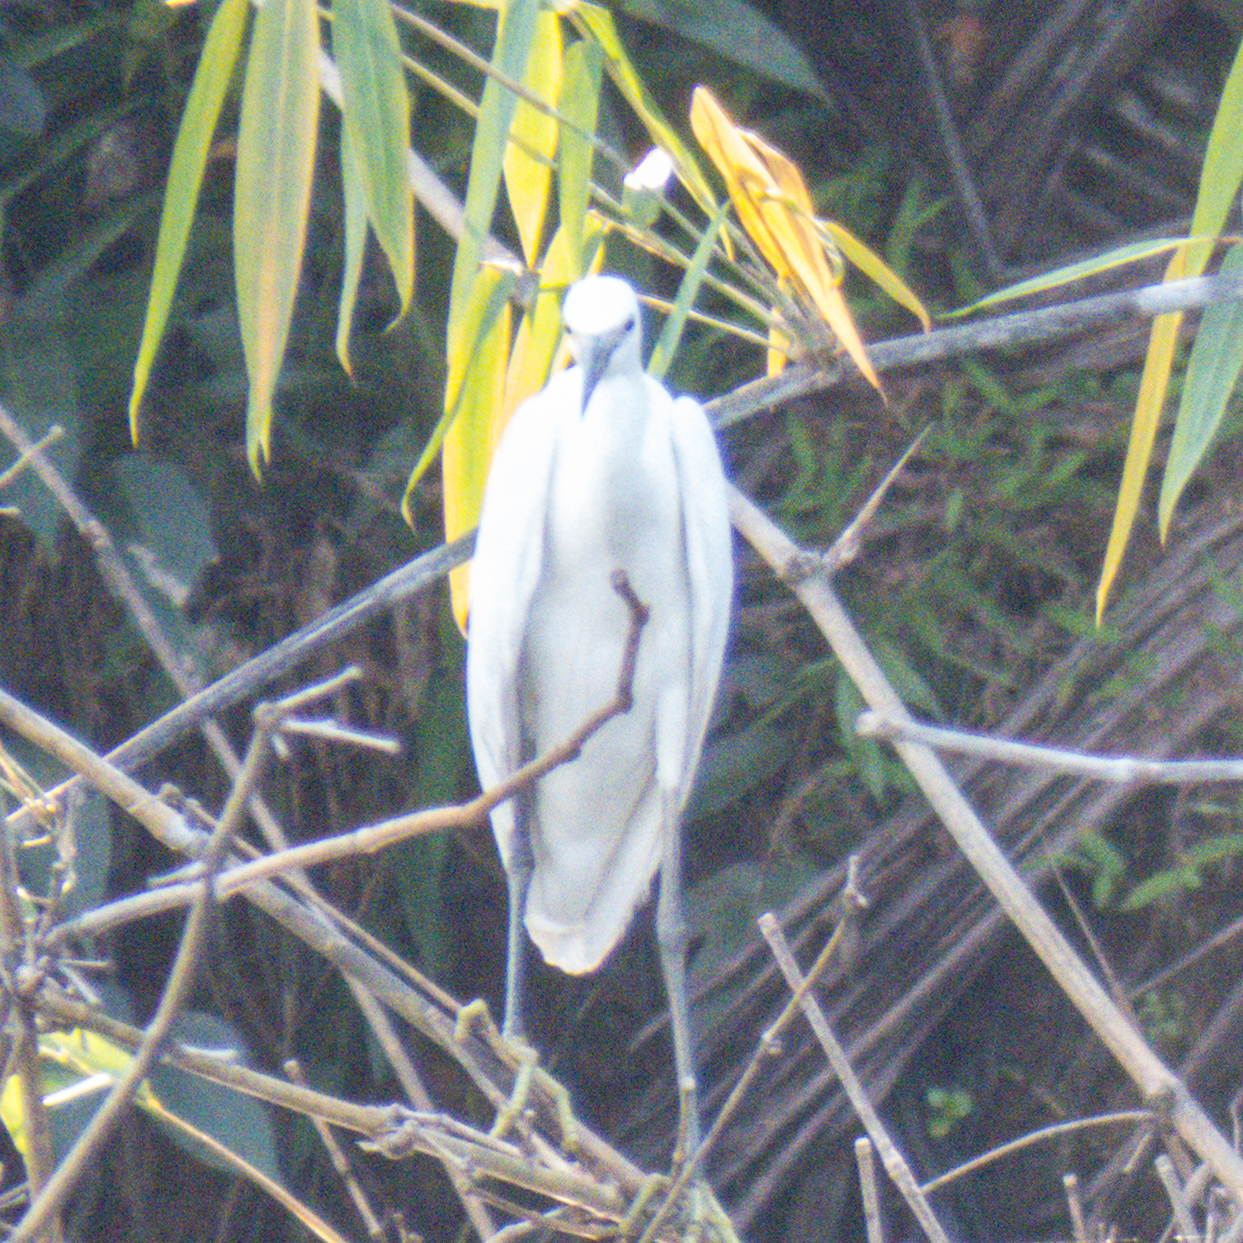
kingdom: Animalia
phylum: Chordata
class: Aves
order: Pelecaniformes
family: Ardeidae
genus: Egretta
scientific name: Egretta garzetta
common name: Little egret
